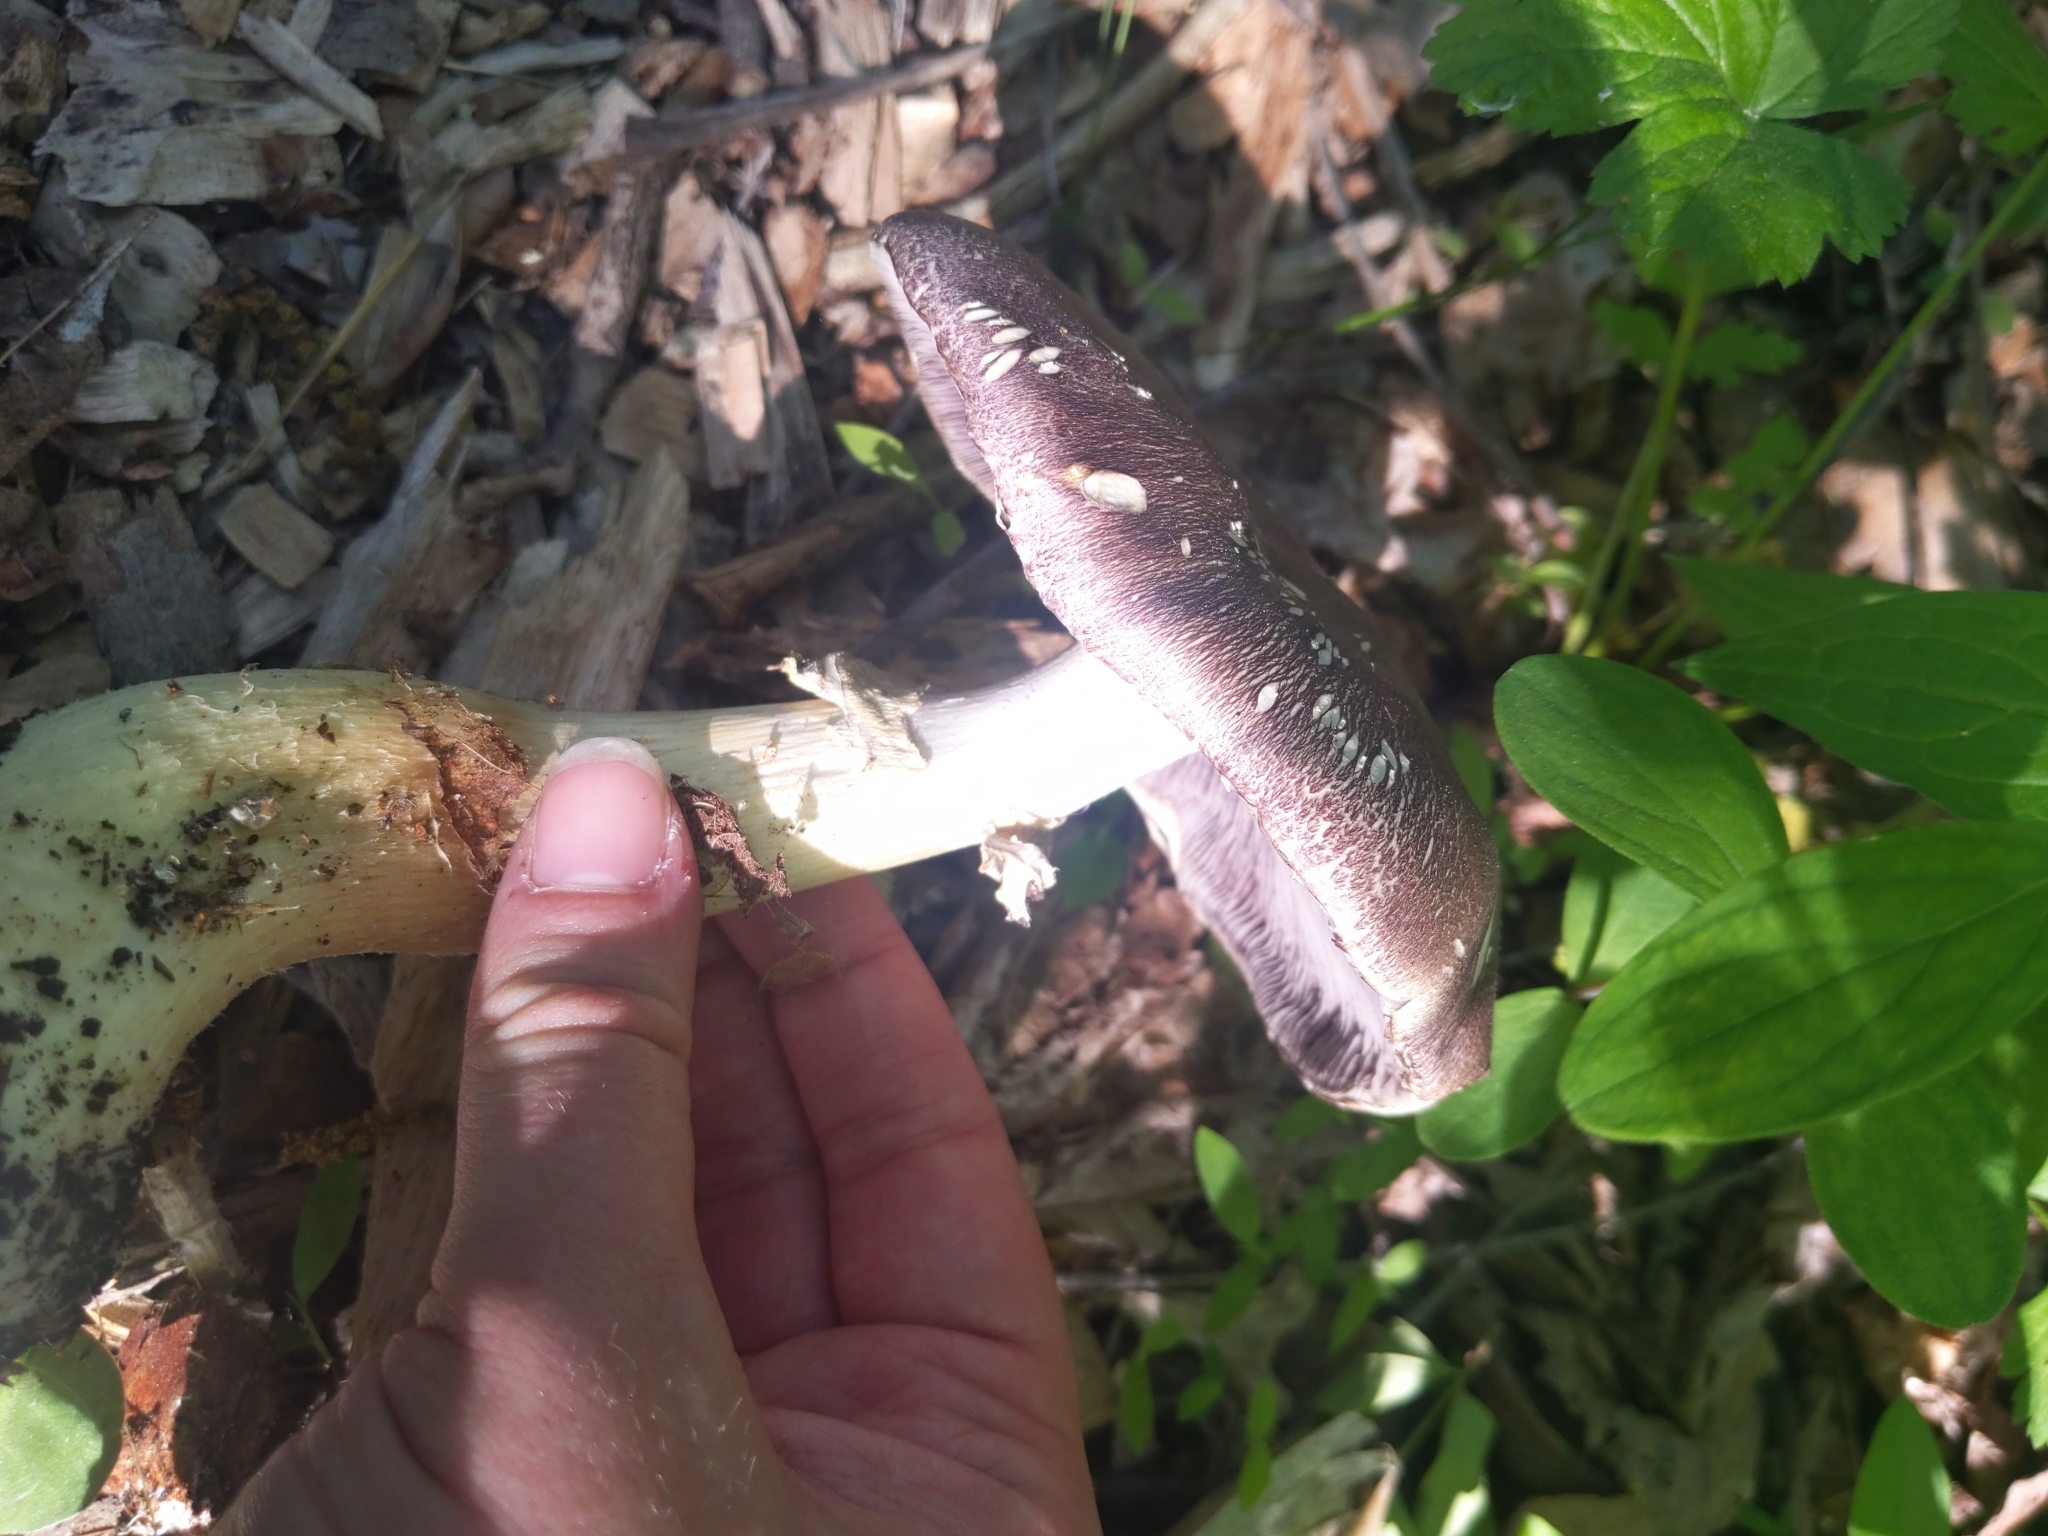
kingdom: Fungi
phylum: Basidiomycota
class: Agaricomycetes
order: Agaricales
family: Strophariaceae
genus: Stropharia
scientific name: Stropharia rugosoannulata
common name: Wine roundhead
